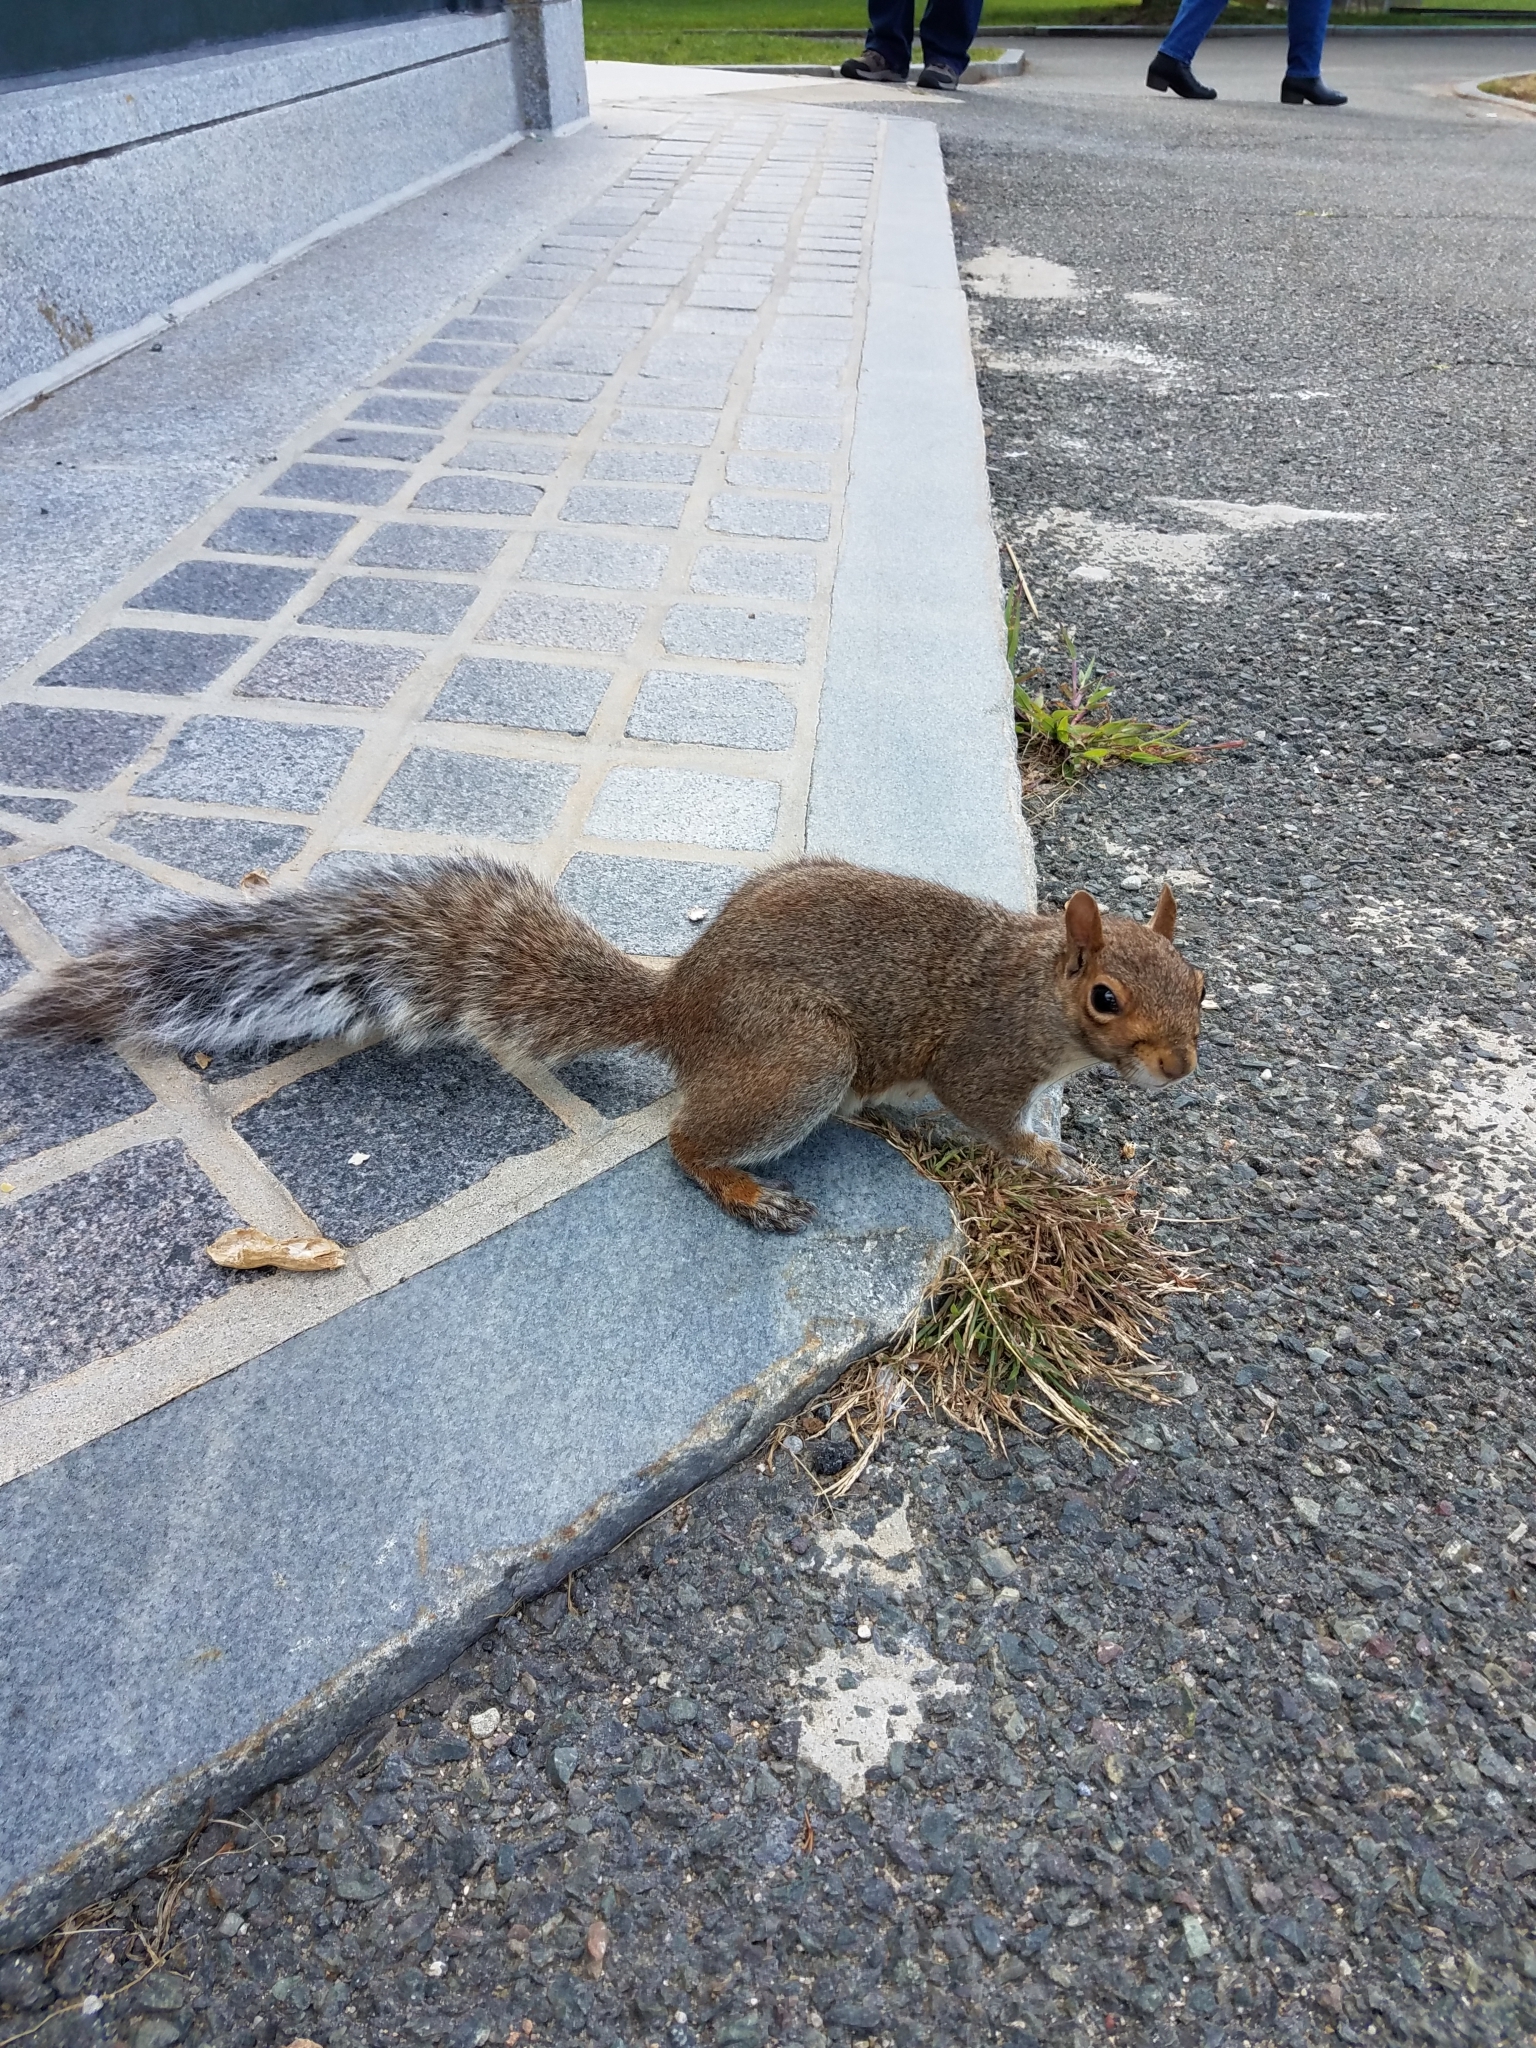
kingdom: Animalia
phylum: Chordata
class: Mammalia
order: Rodentia
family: Sciuridae
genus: Sciurus
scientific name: Sciurus carolinensis
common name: Eastern gray squirrel
